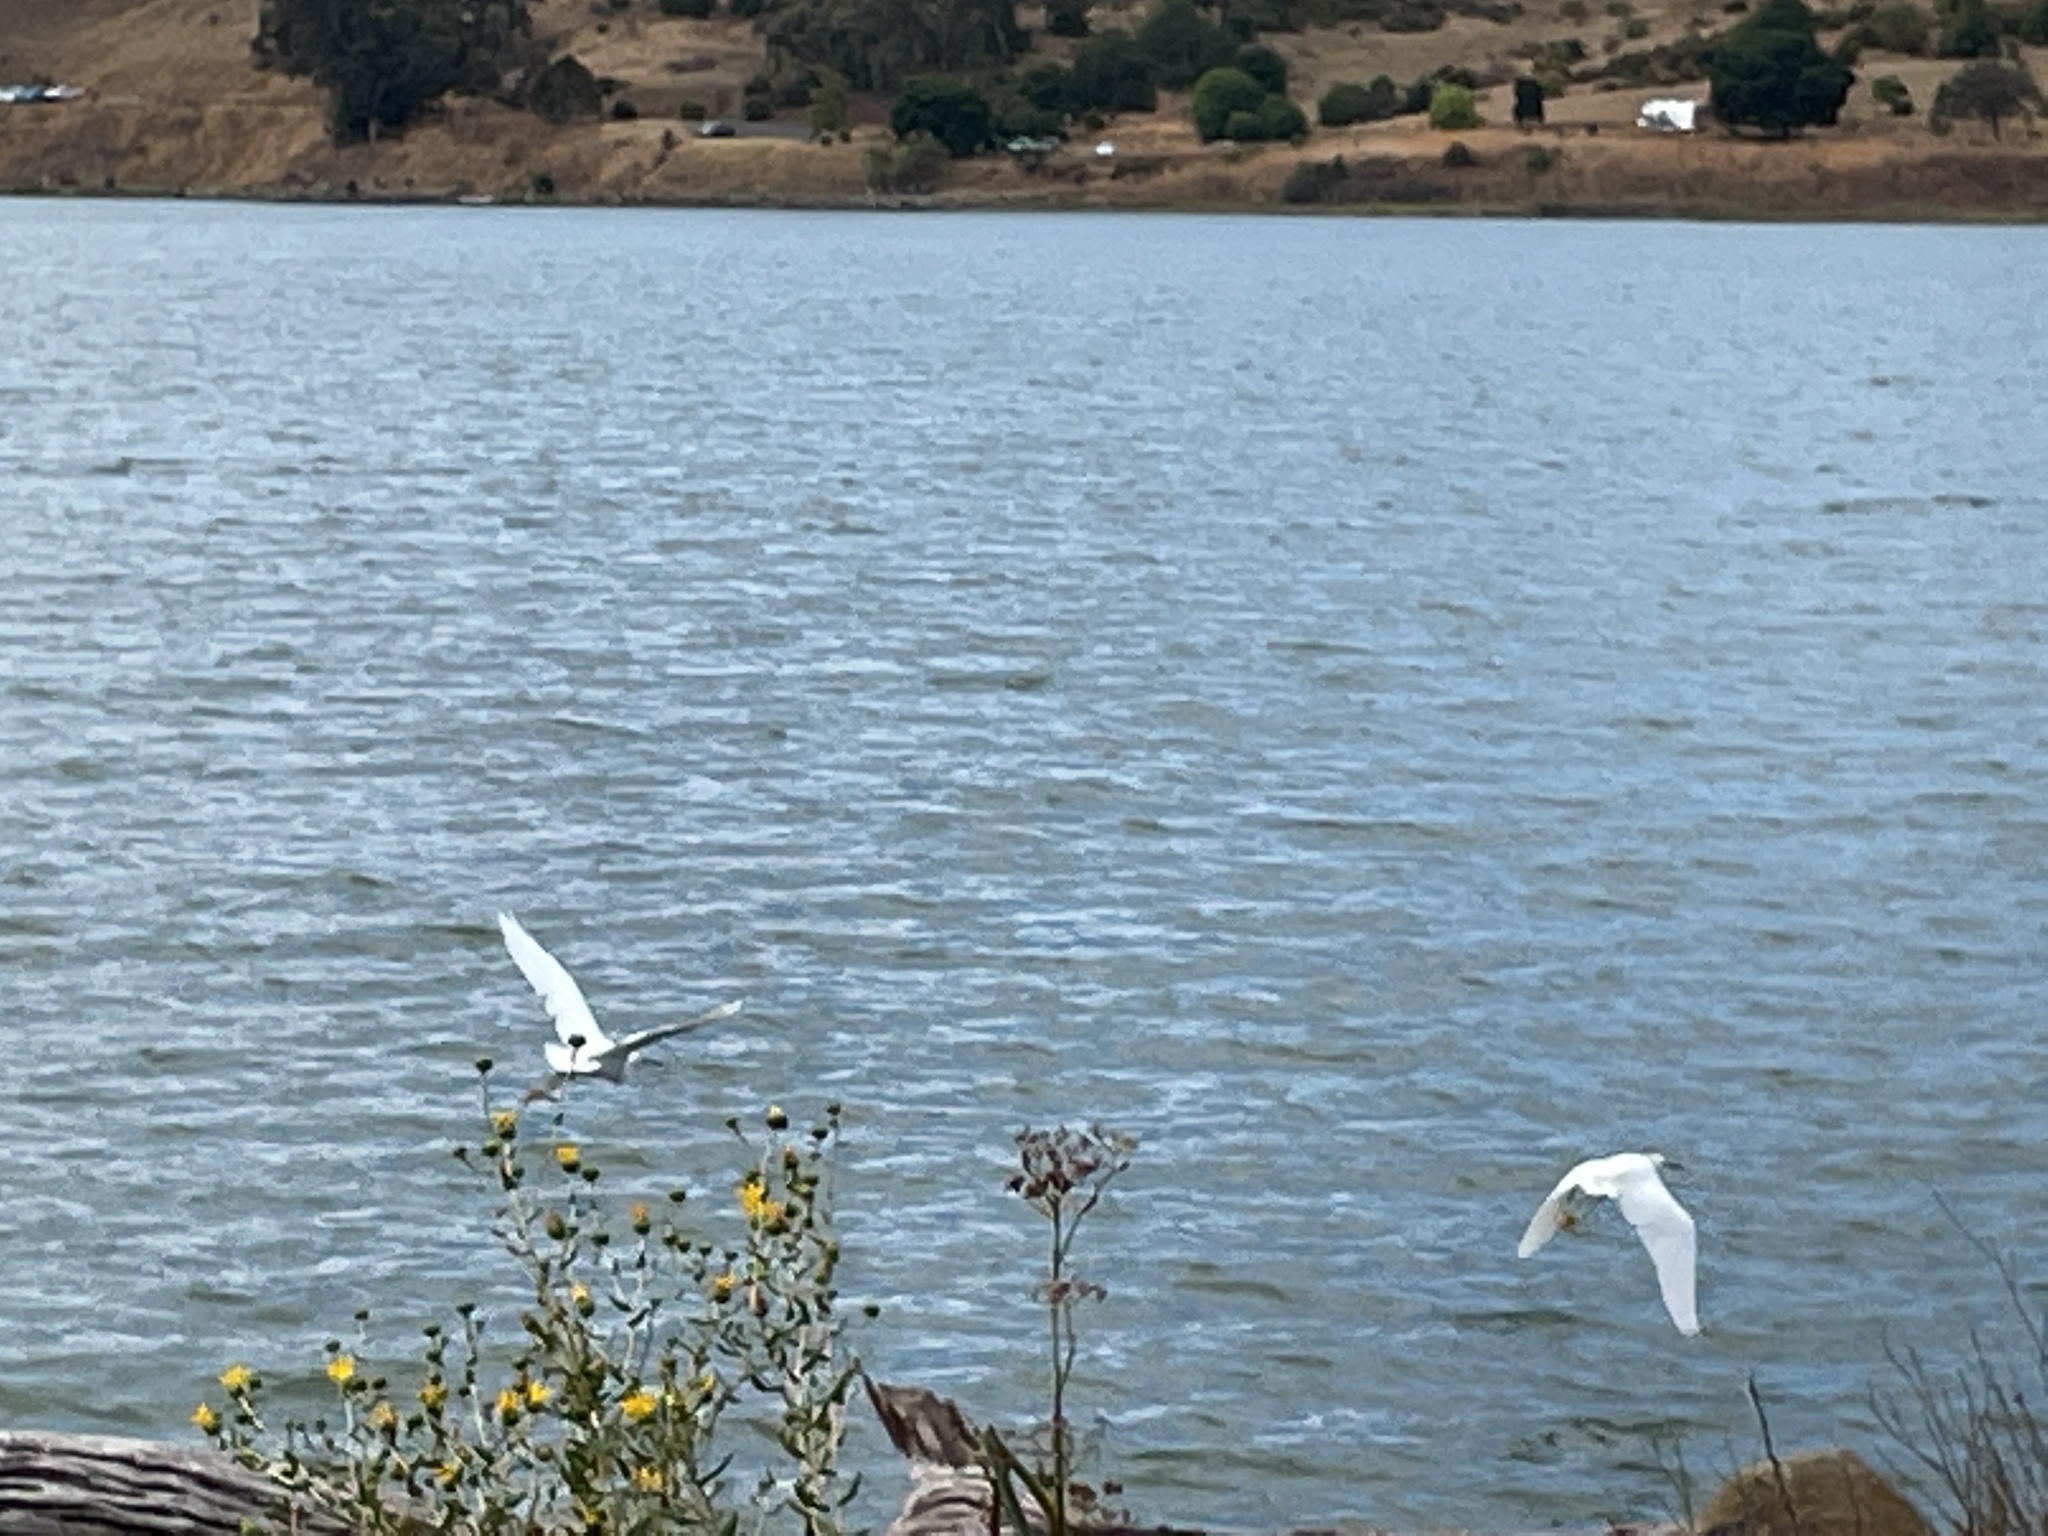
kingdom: Animalia
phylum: Chordata
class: Aves
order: Pelecaniformes
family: Ardeidae
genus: Egretta
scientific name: Egretta thula
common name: Snowy egret
